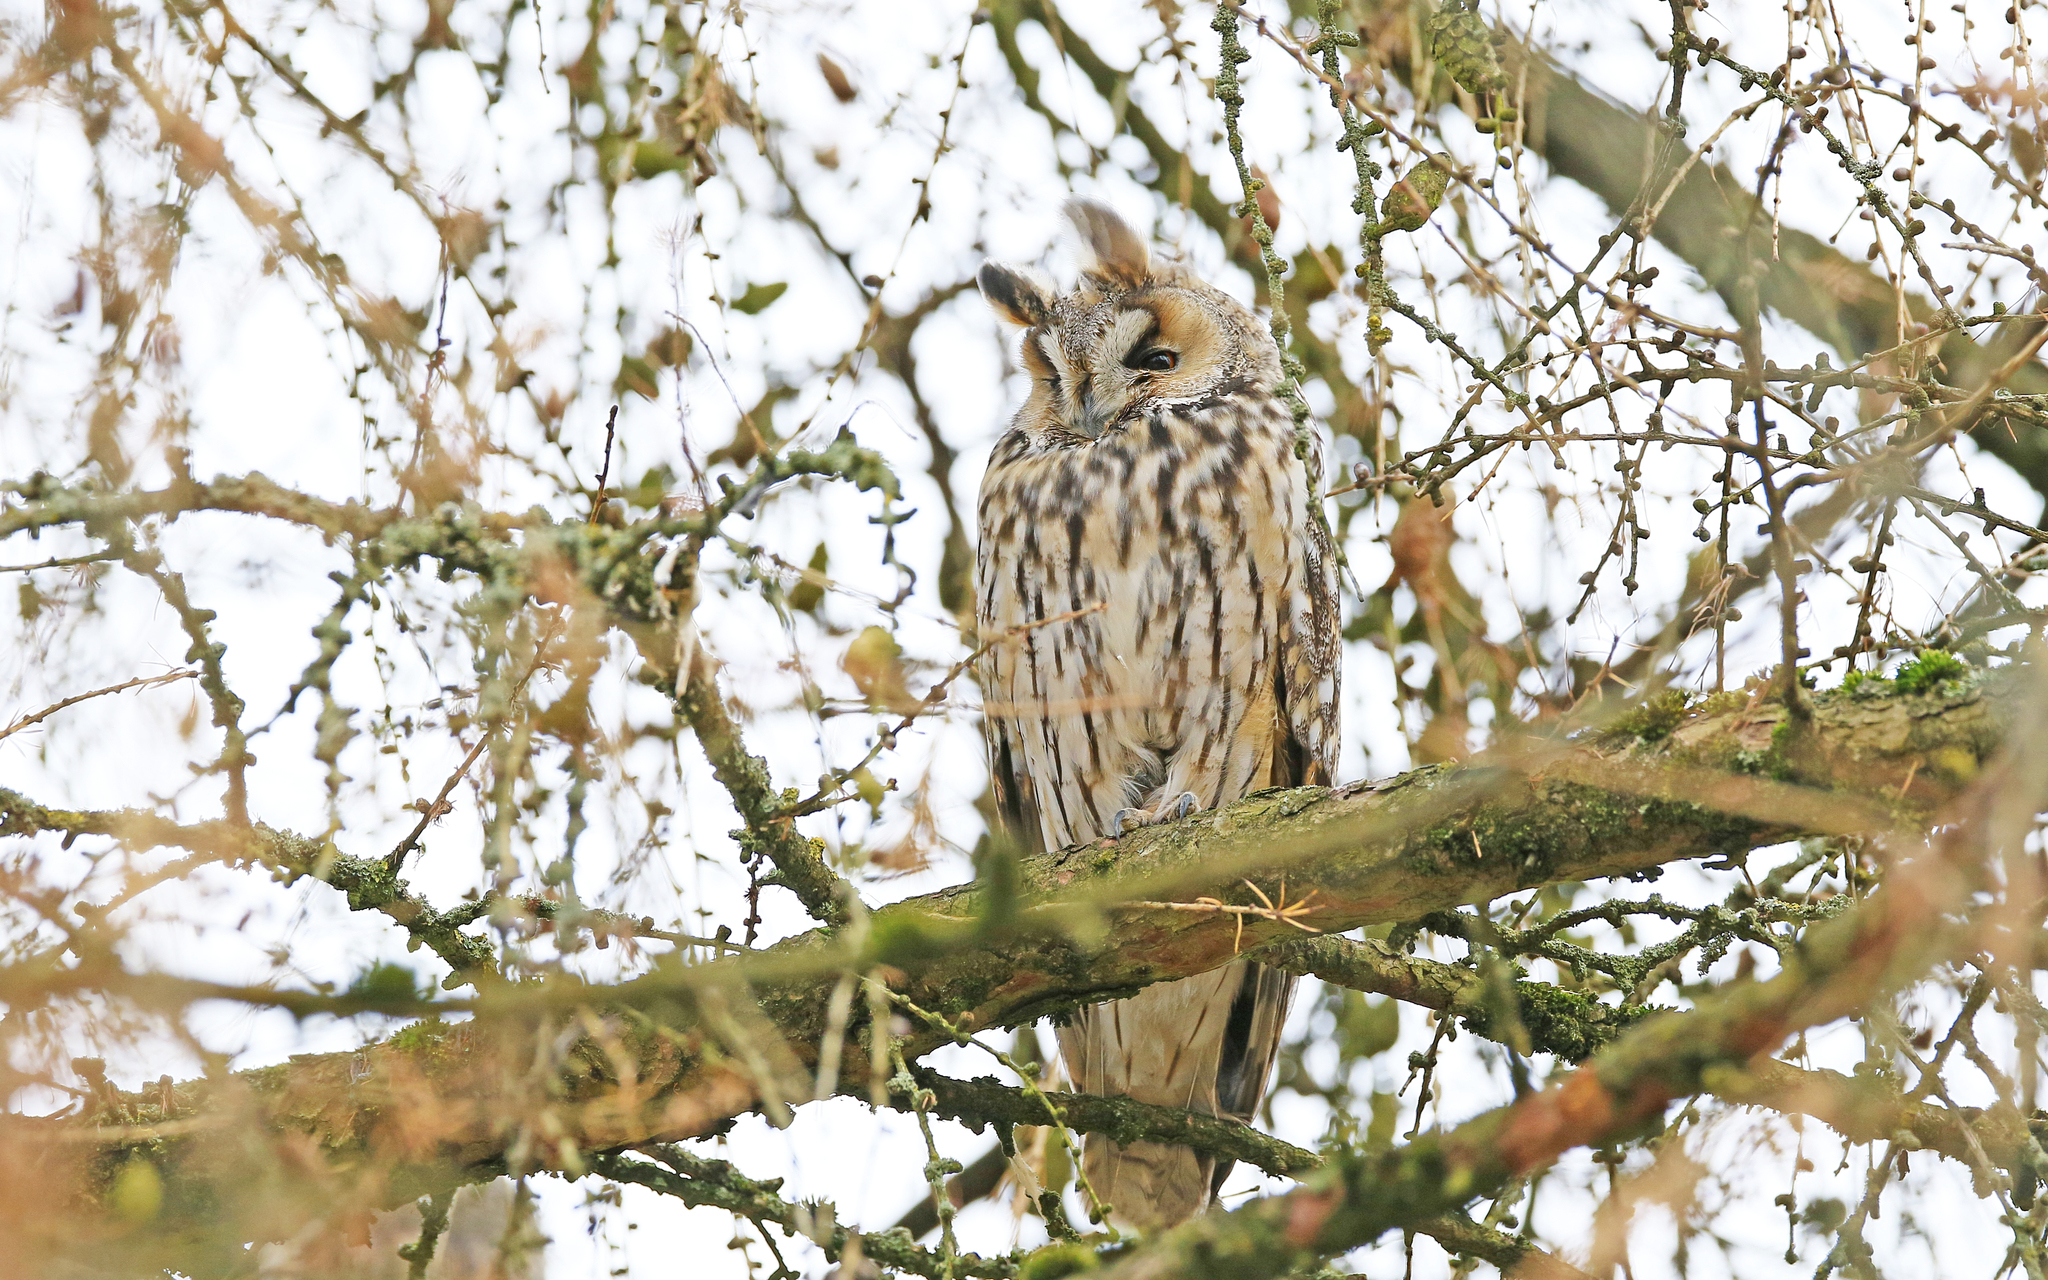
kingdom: Animalia
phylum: Chordata
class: Aves
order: Strigiformes
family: Strigidae
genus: Asio
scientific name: Asio otus
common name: Long-eared owl
